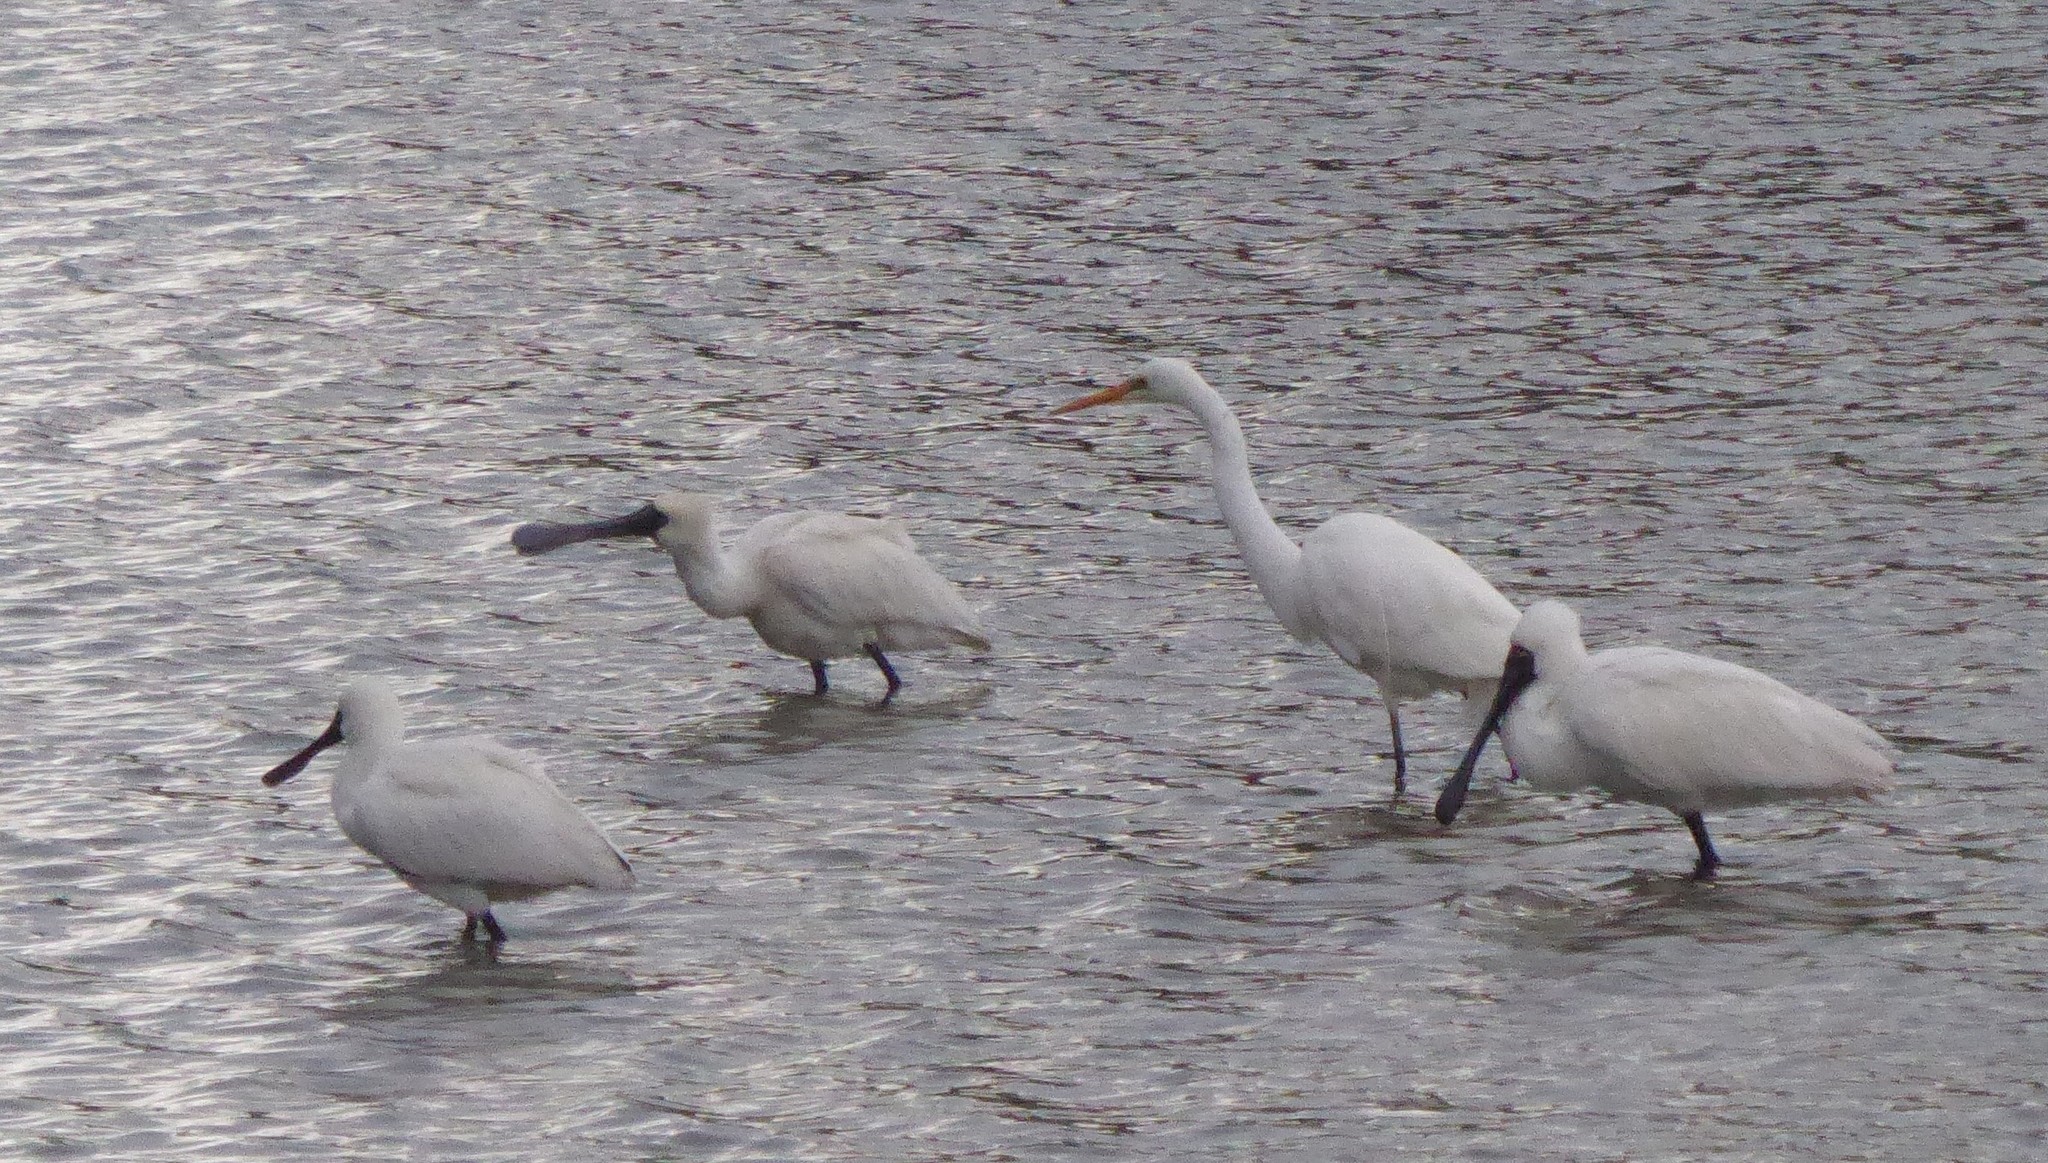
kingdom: Animalia
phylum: Chordata
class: Aves
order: Pelecaniformes
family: Ardeidae
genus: Ardea
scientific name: Ardea modesta
